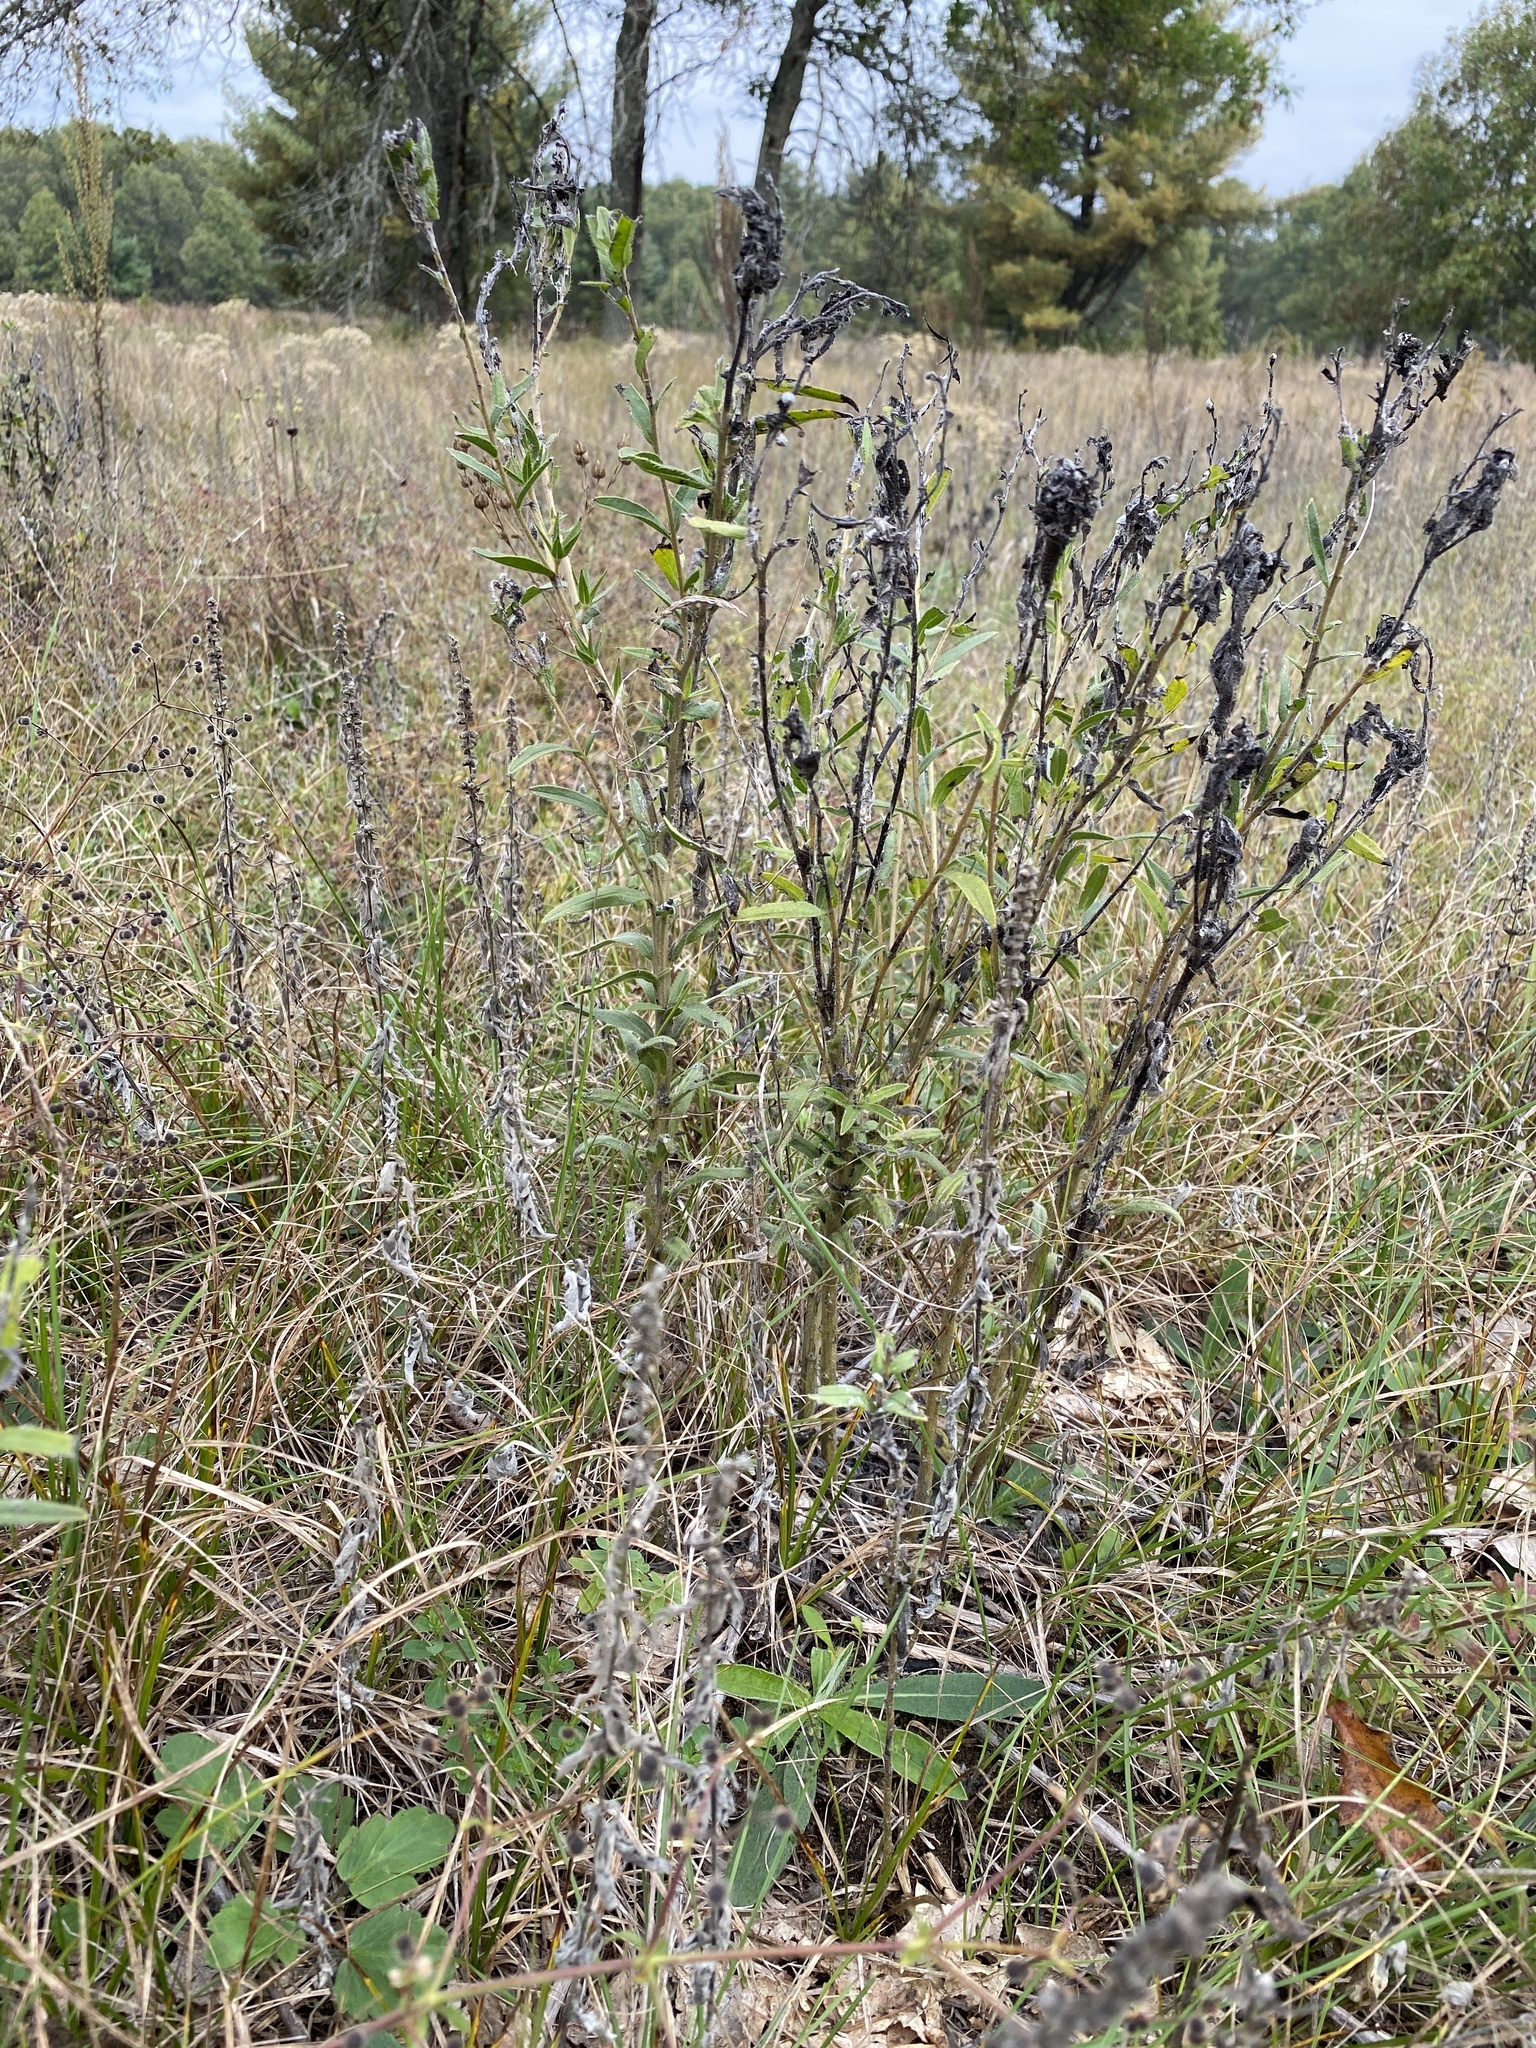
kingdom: Plantae
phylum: Tracheophyta
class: Magnoliopsida
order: Lamiales
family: Plantaginaceae
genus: Penstemon
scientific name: Penstemon digitalis
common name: Foxglove beardtongue
